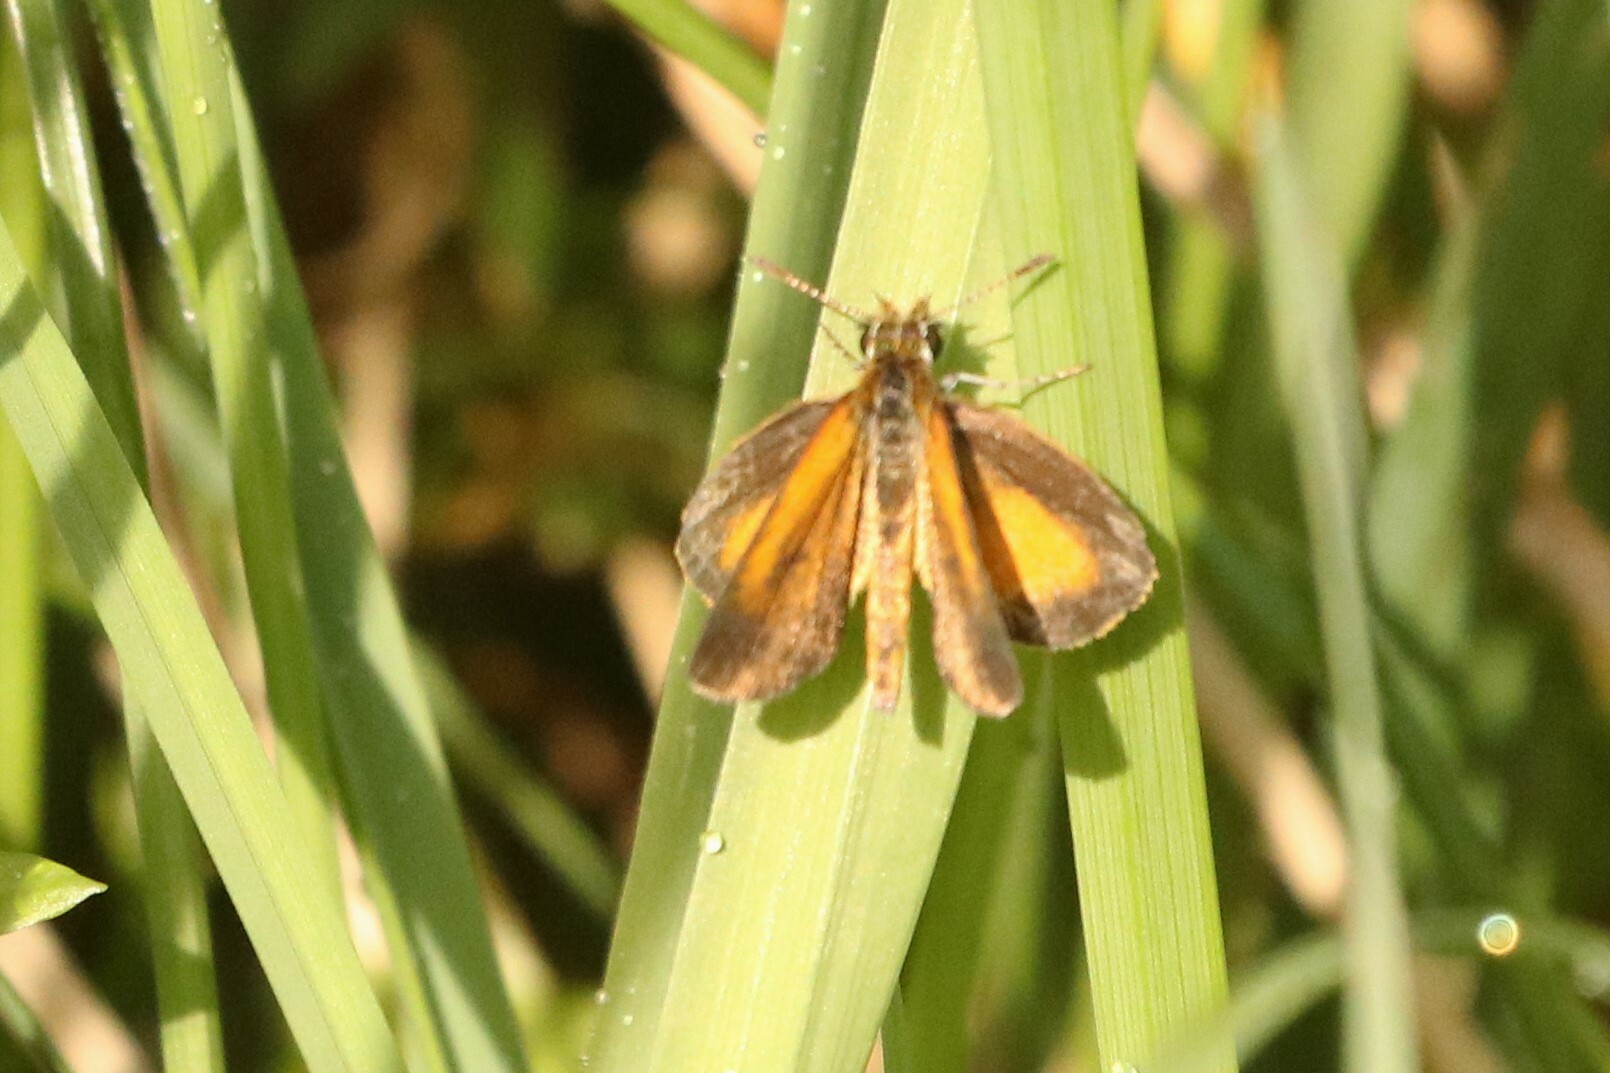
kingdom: Animalia
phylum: Arthropoda
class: Insecta
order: Lepidoptera
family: Hesperiidae
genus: Ancyloxypha
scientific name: Ancyloxypha numitor
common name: Least skipper
